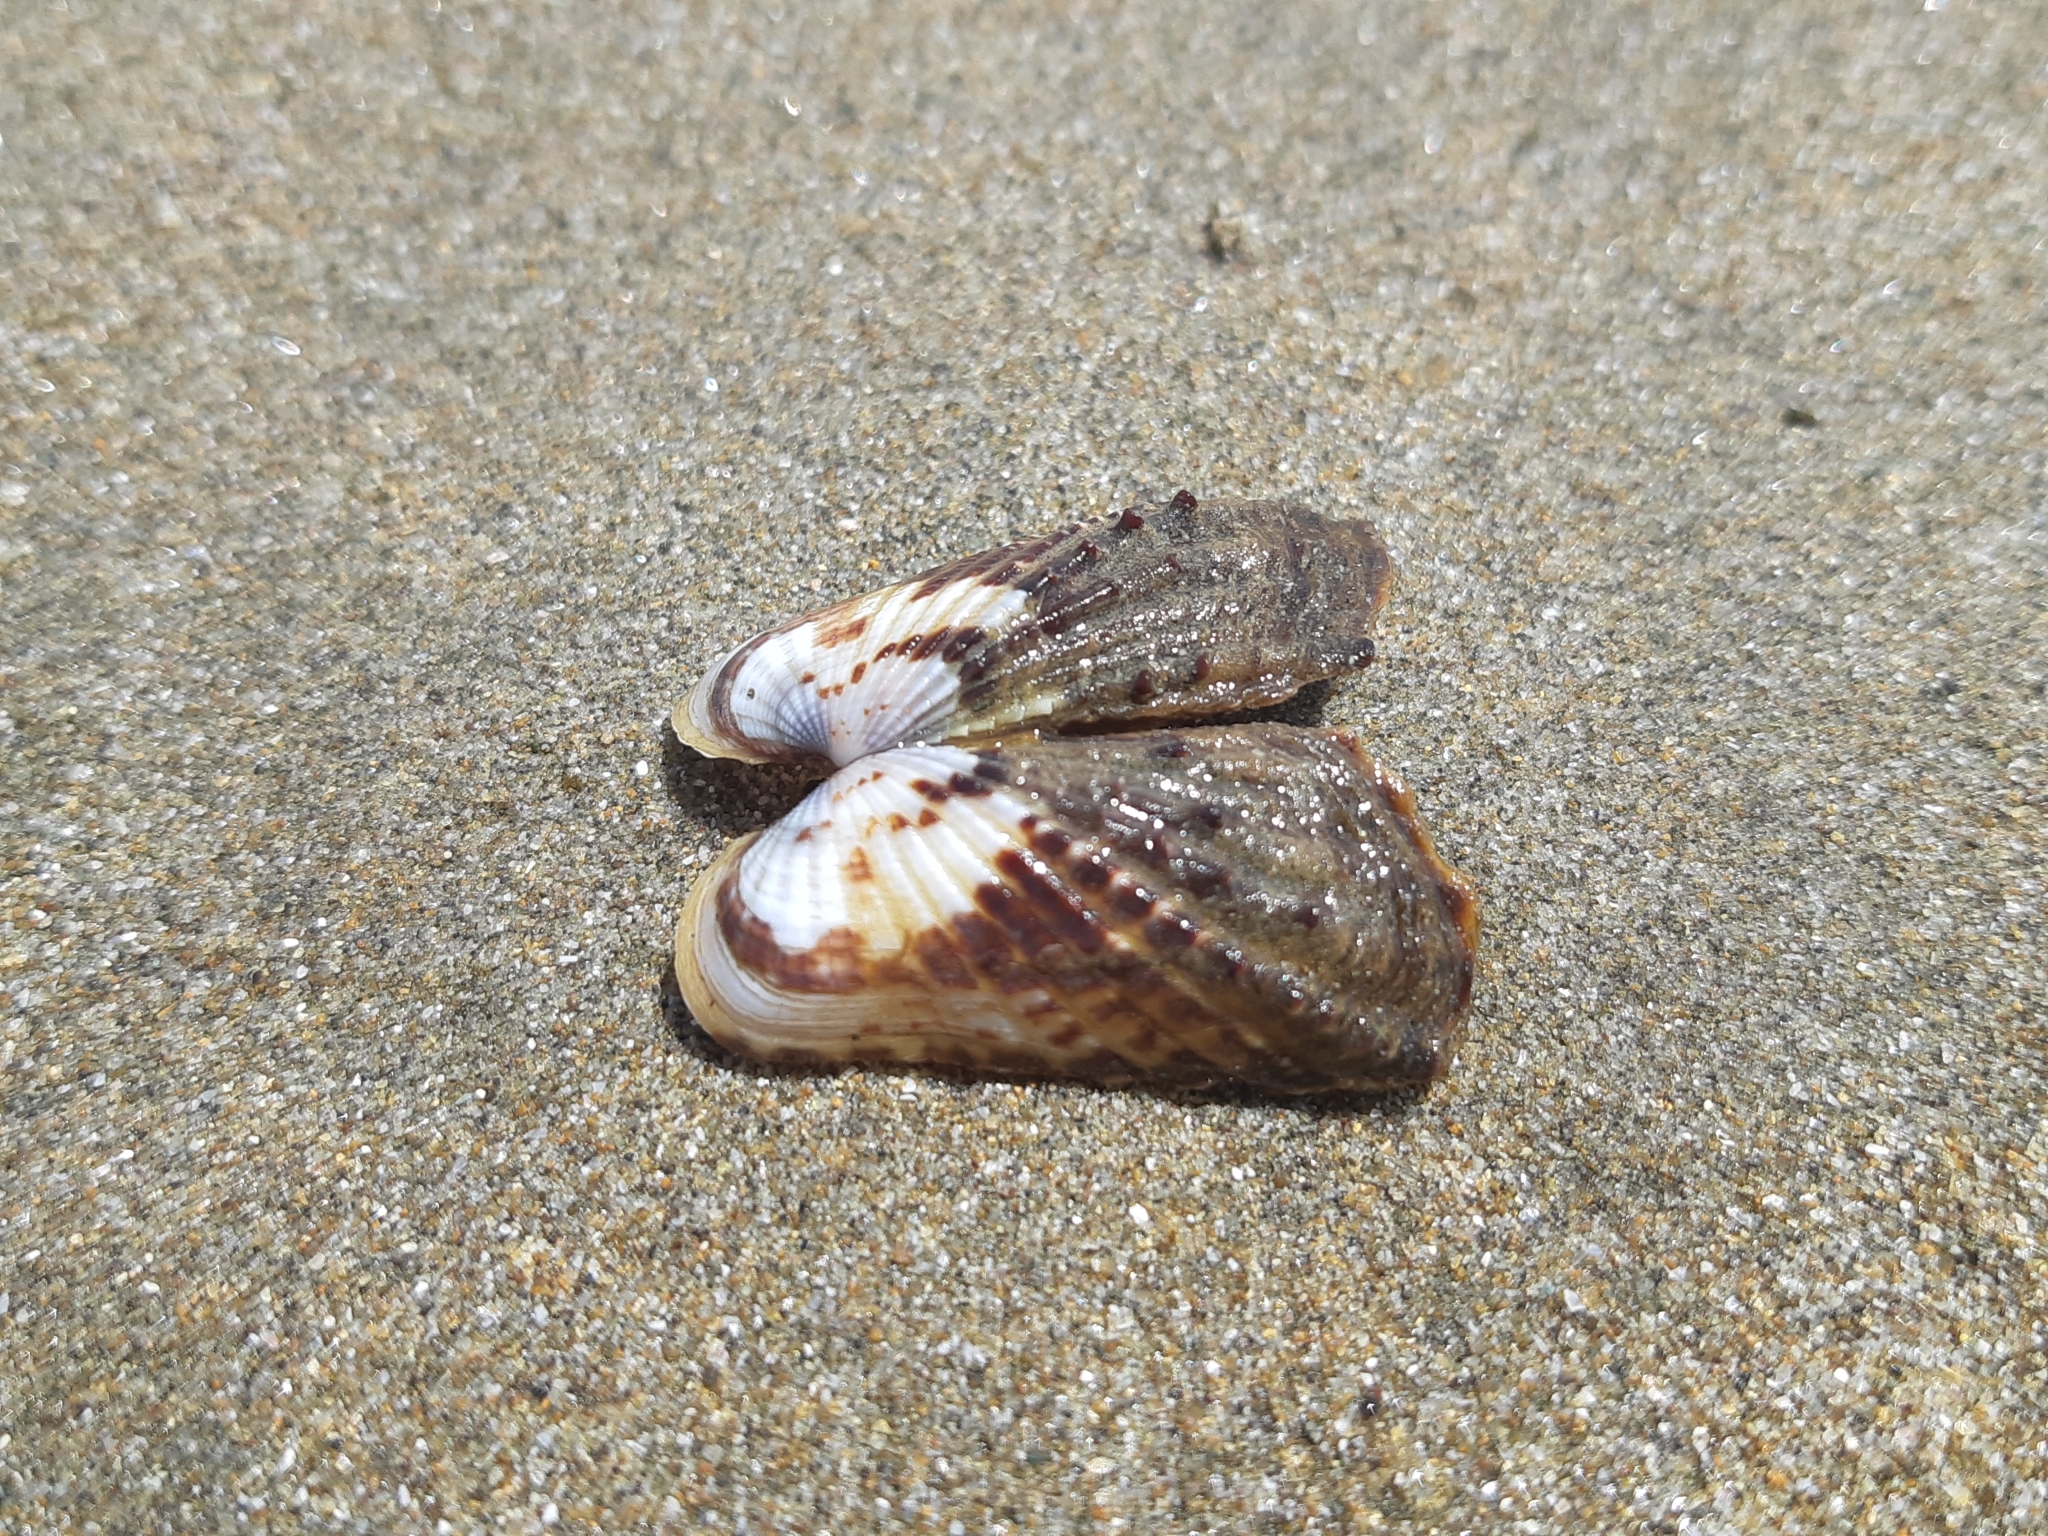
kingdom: Animalia
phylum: Mollusca
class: Bivalvia
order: Carditida
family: Carditidae
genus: Carditamera
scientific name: Carditamera affinis
